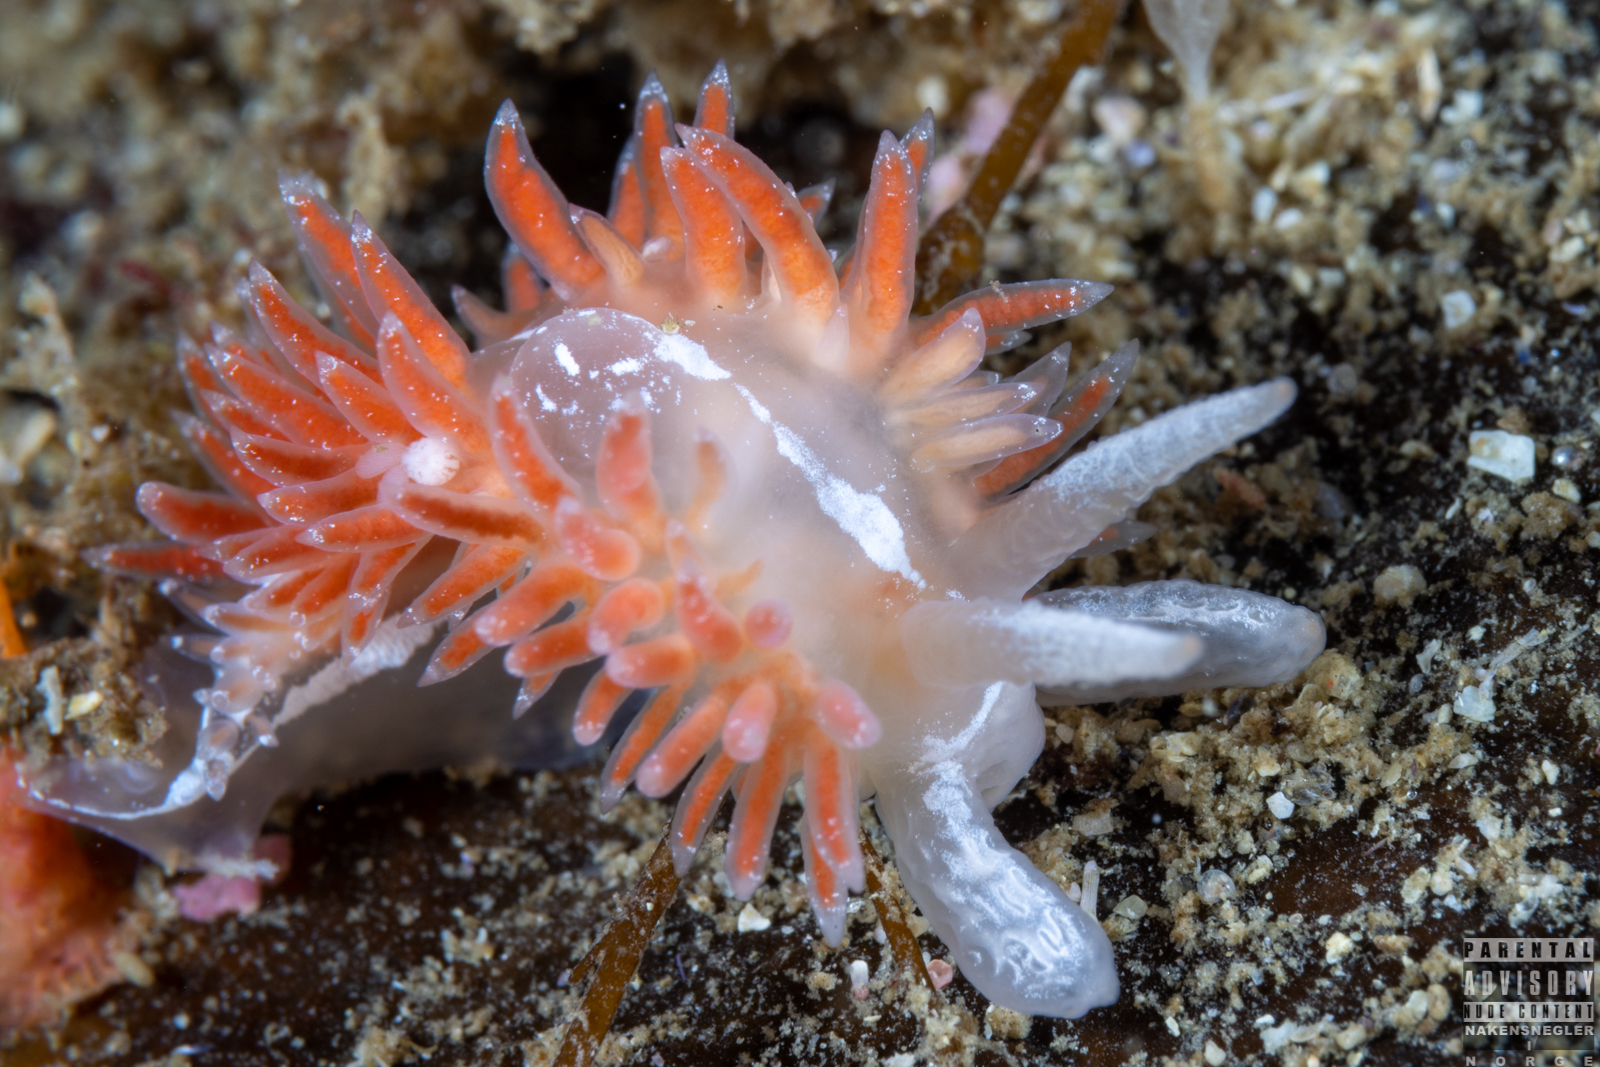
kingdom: Animalia
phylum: Mollusca
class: Gastropoda
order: Nudibranchia
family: Coryphellidae
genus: Coryphella
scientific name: Coryphella orjani
